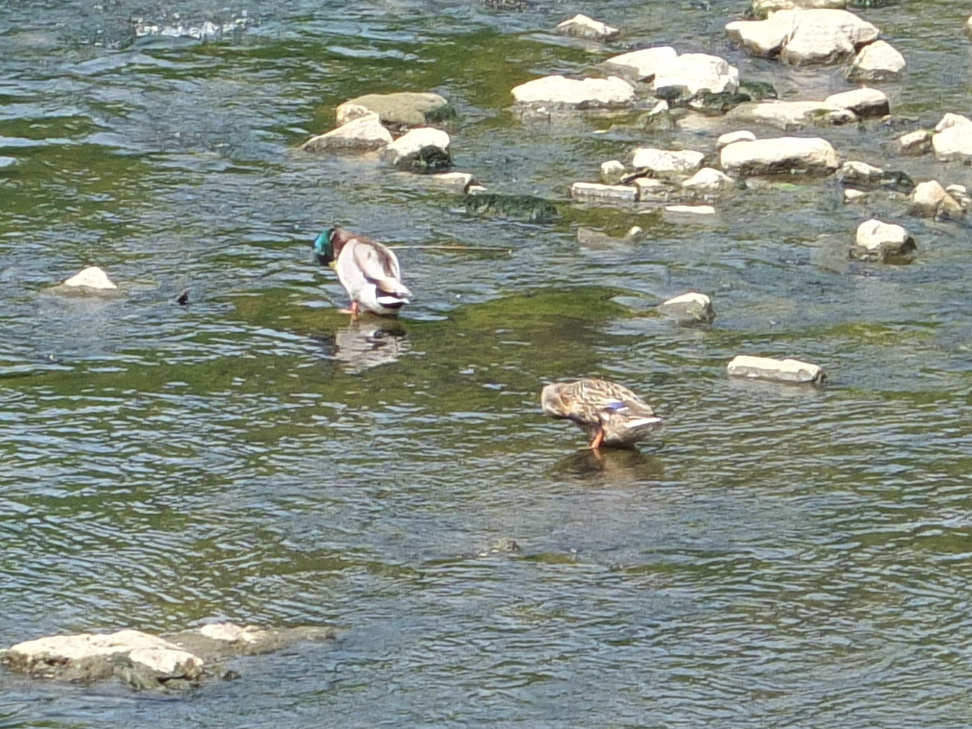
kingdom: Animalia
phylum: Chordata
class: Aves
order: Anseriformes
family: Anatidae
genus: Anas
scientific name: Anas platyrhynchos
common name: Mallard
